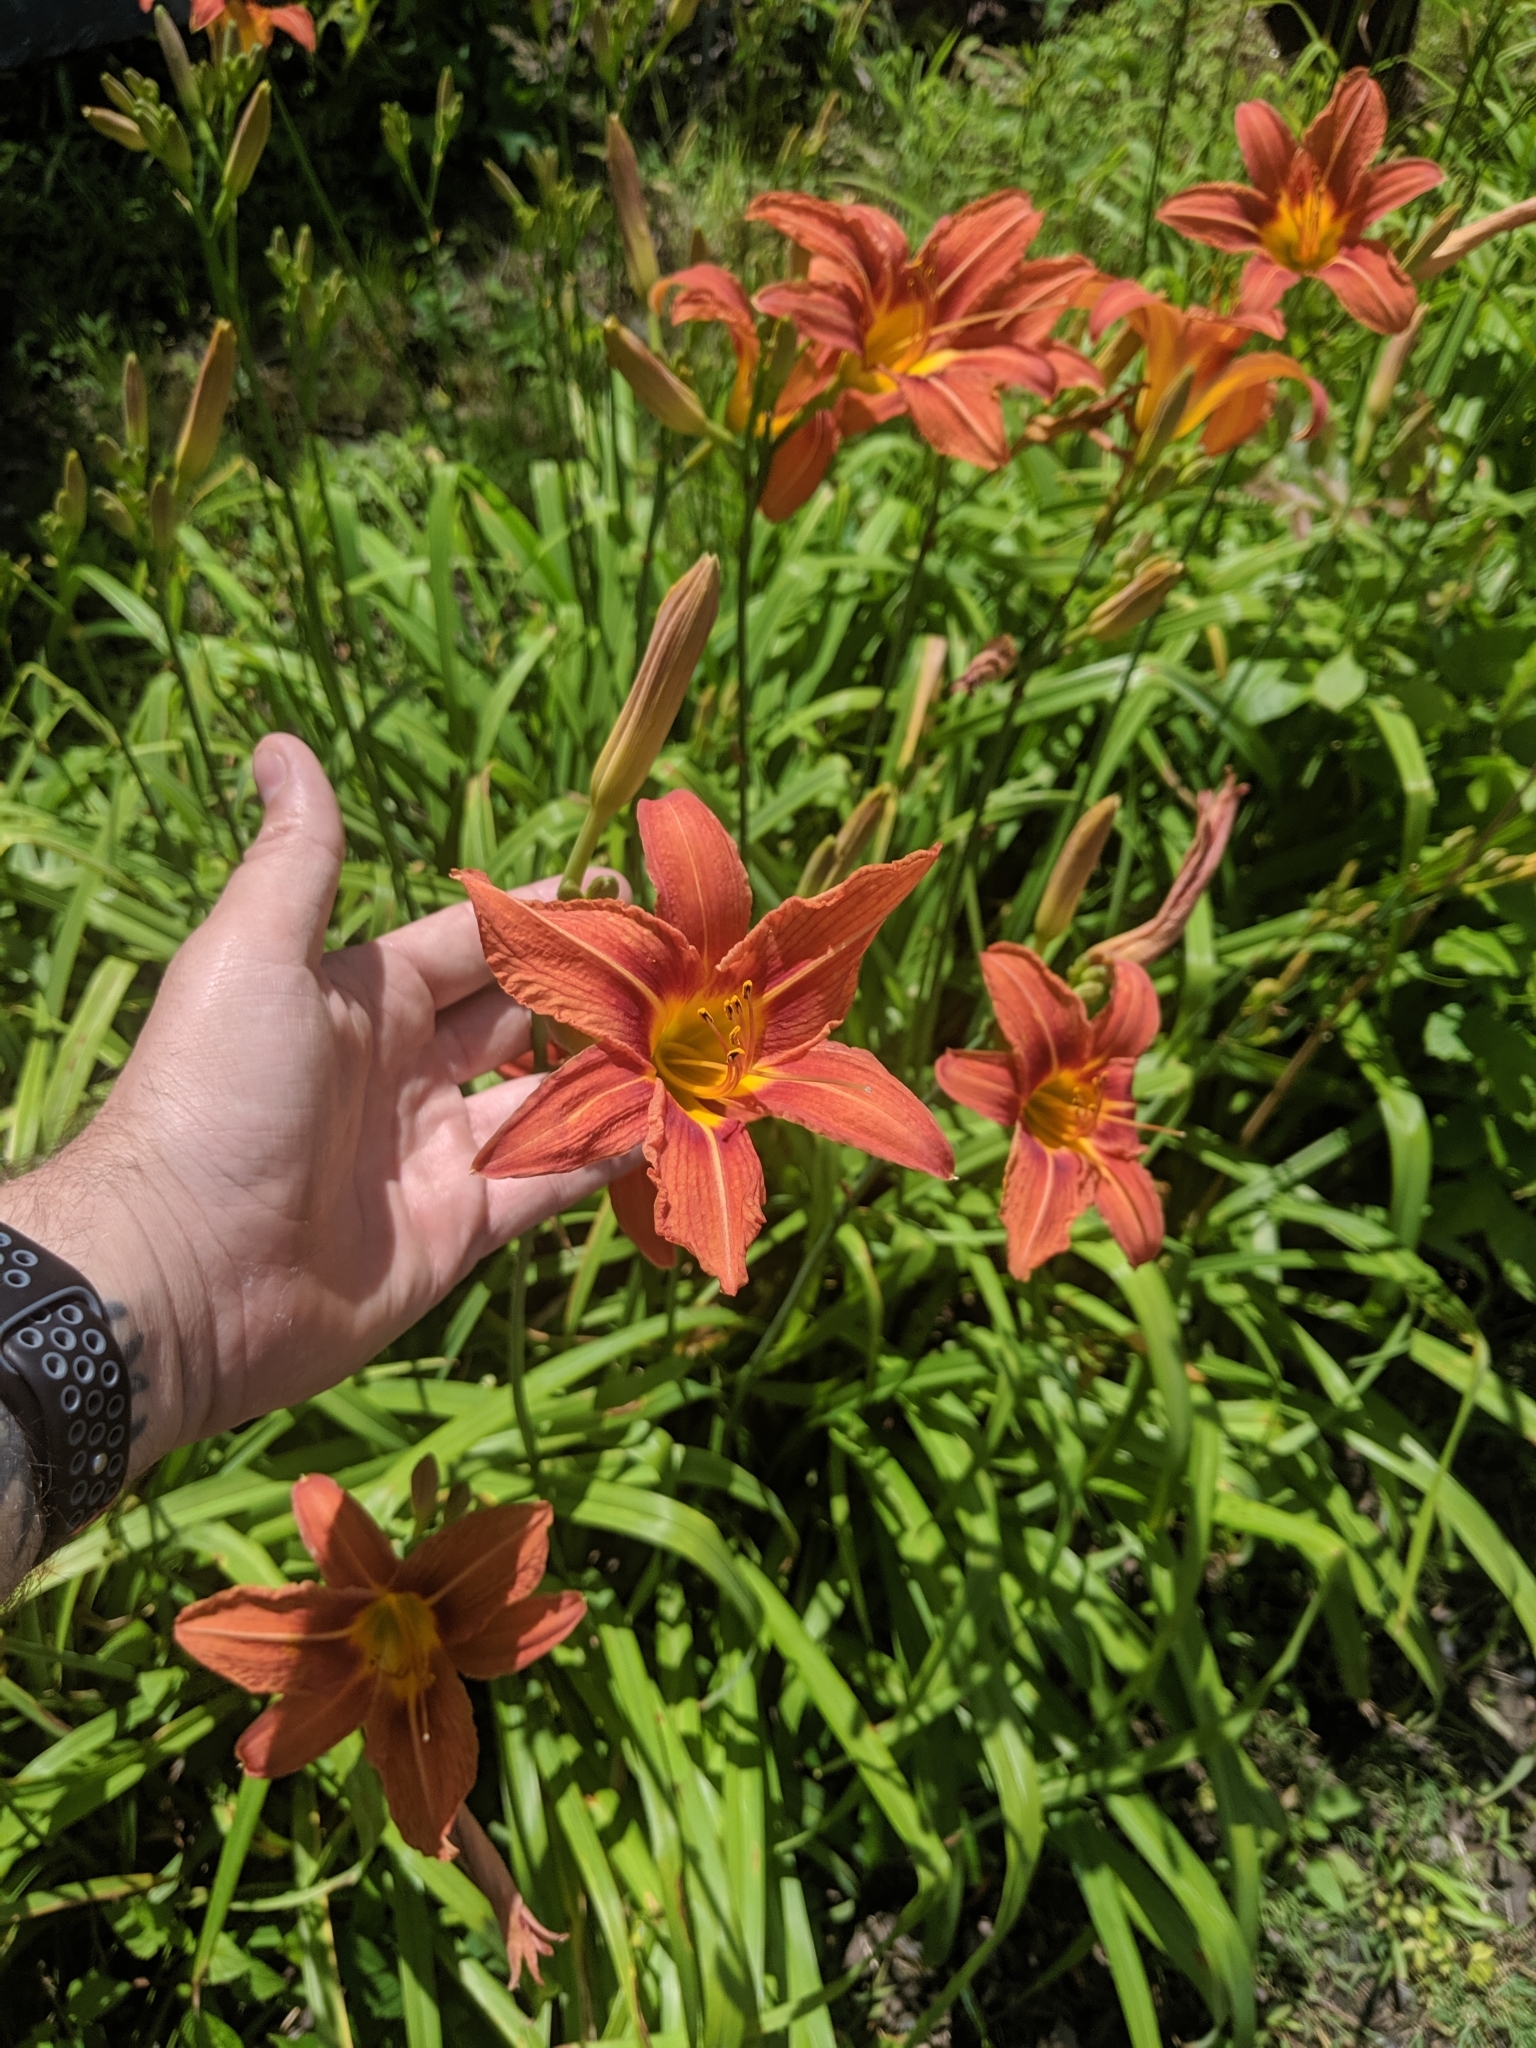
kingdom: Plantae
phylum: Tracheophyta
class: Liliopsida
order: Asparagales
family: Asphodelaceae
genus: Hemerocallis
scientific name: Hemerocallis fulva
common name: Orange day-lily
